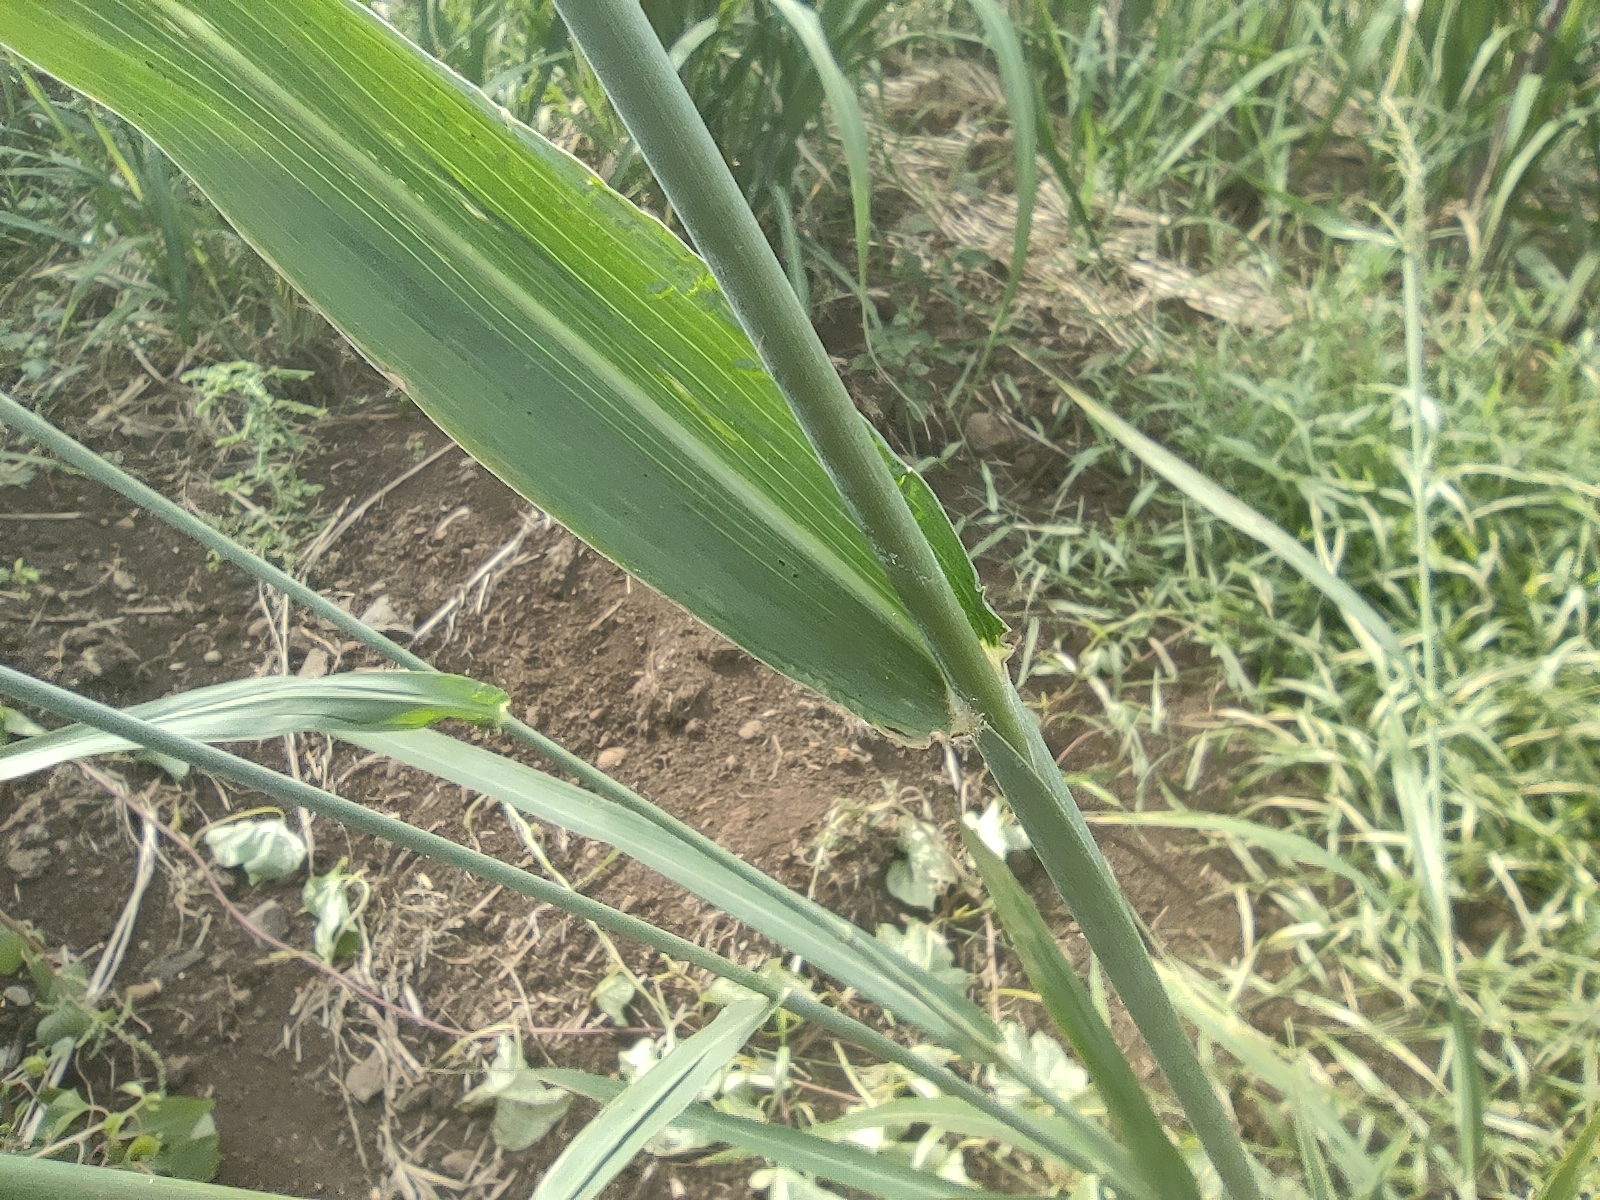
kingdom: Plantae
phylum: Tracheophyta
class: Liliopsida
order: Poales
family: Poaceae
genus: Megathyrsus
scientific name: Megathyrsus maximus
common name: Guineagrass
